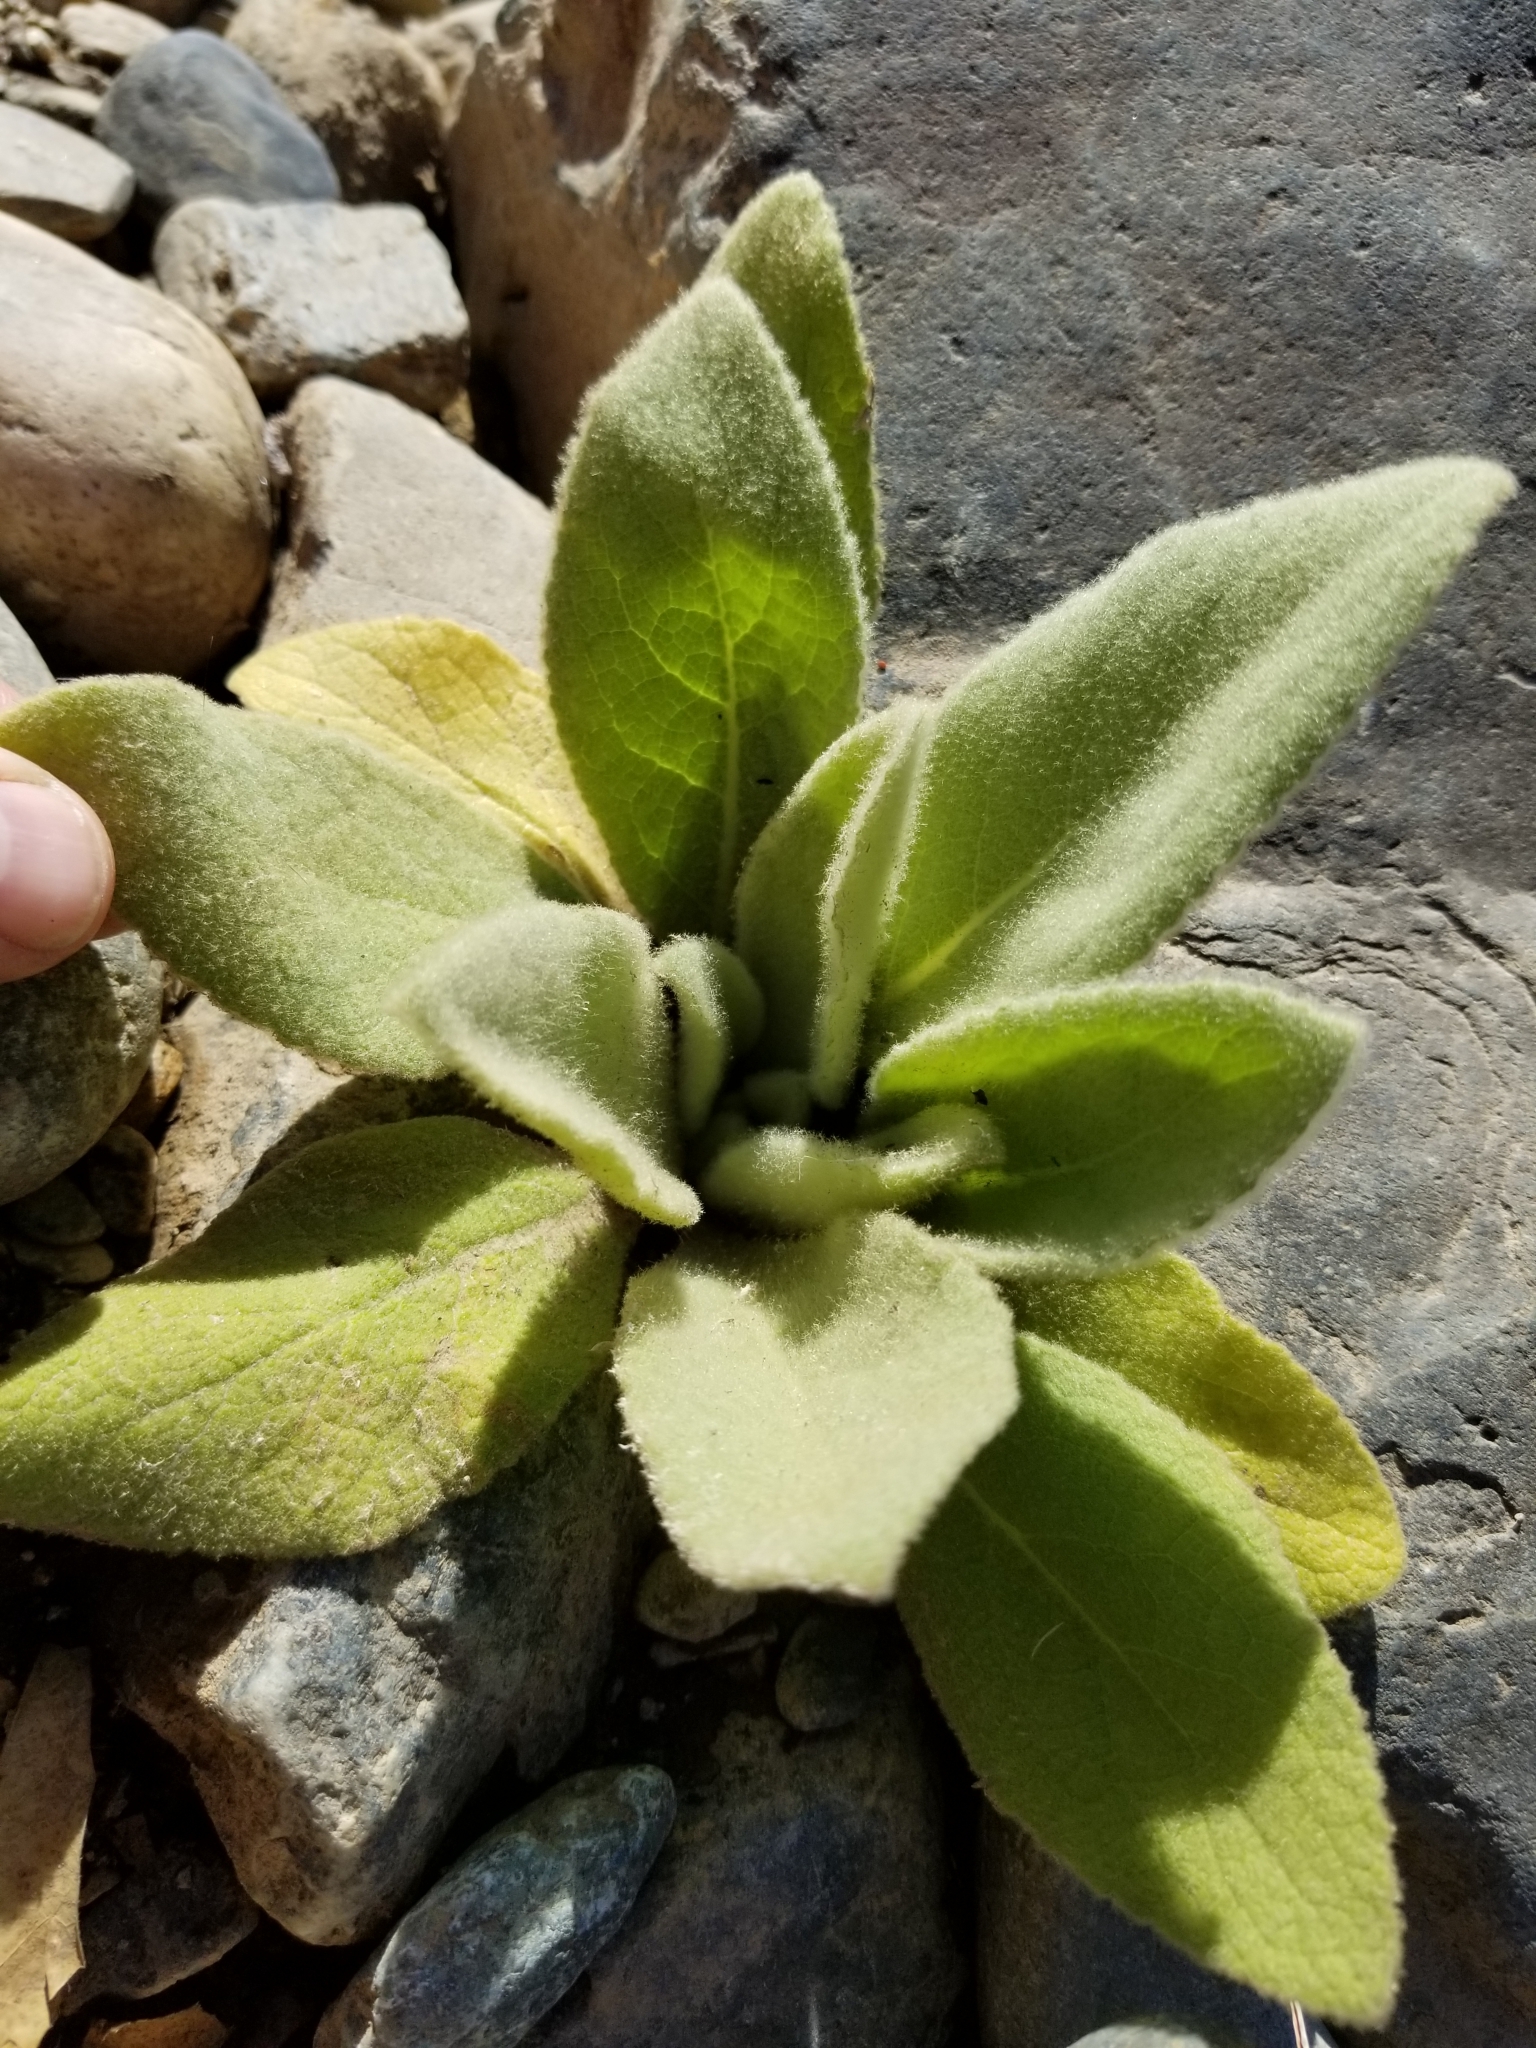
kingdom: Plantae
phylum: Tracheophyta
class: Magnoliopsida
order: Lamiales
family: Scrophulariaceae
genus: Verbascum
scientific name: Verbascum thapsus
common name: Common mullein
